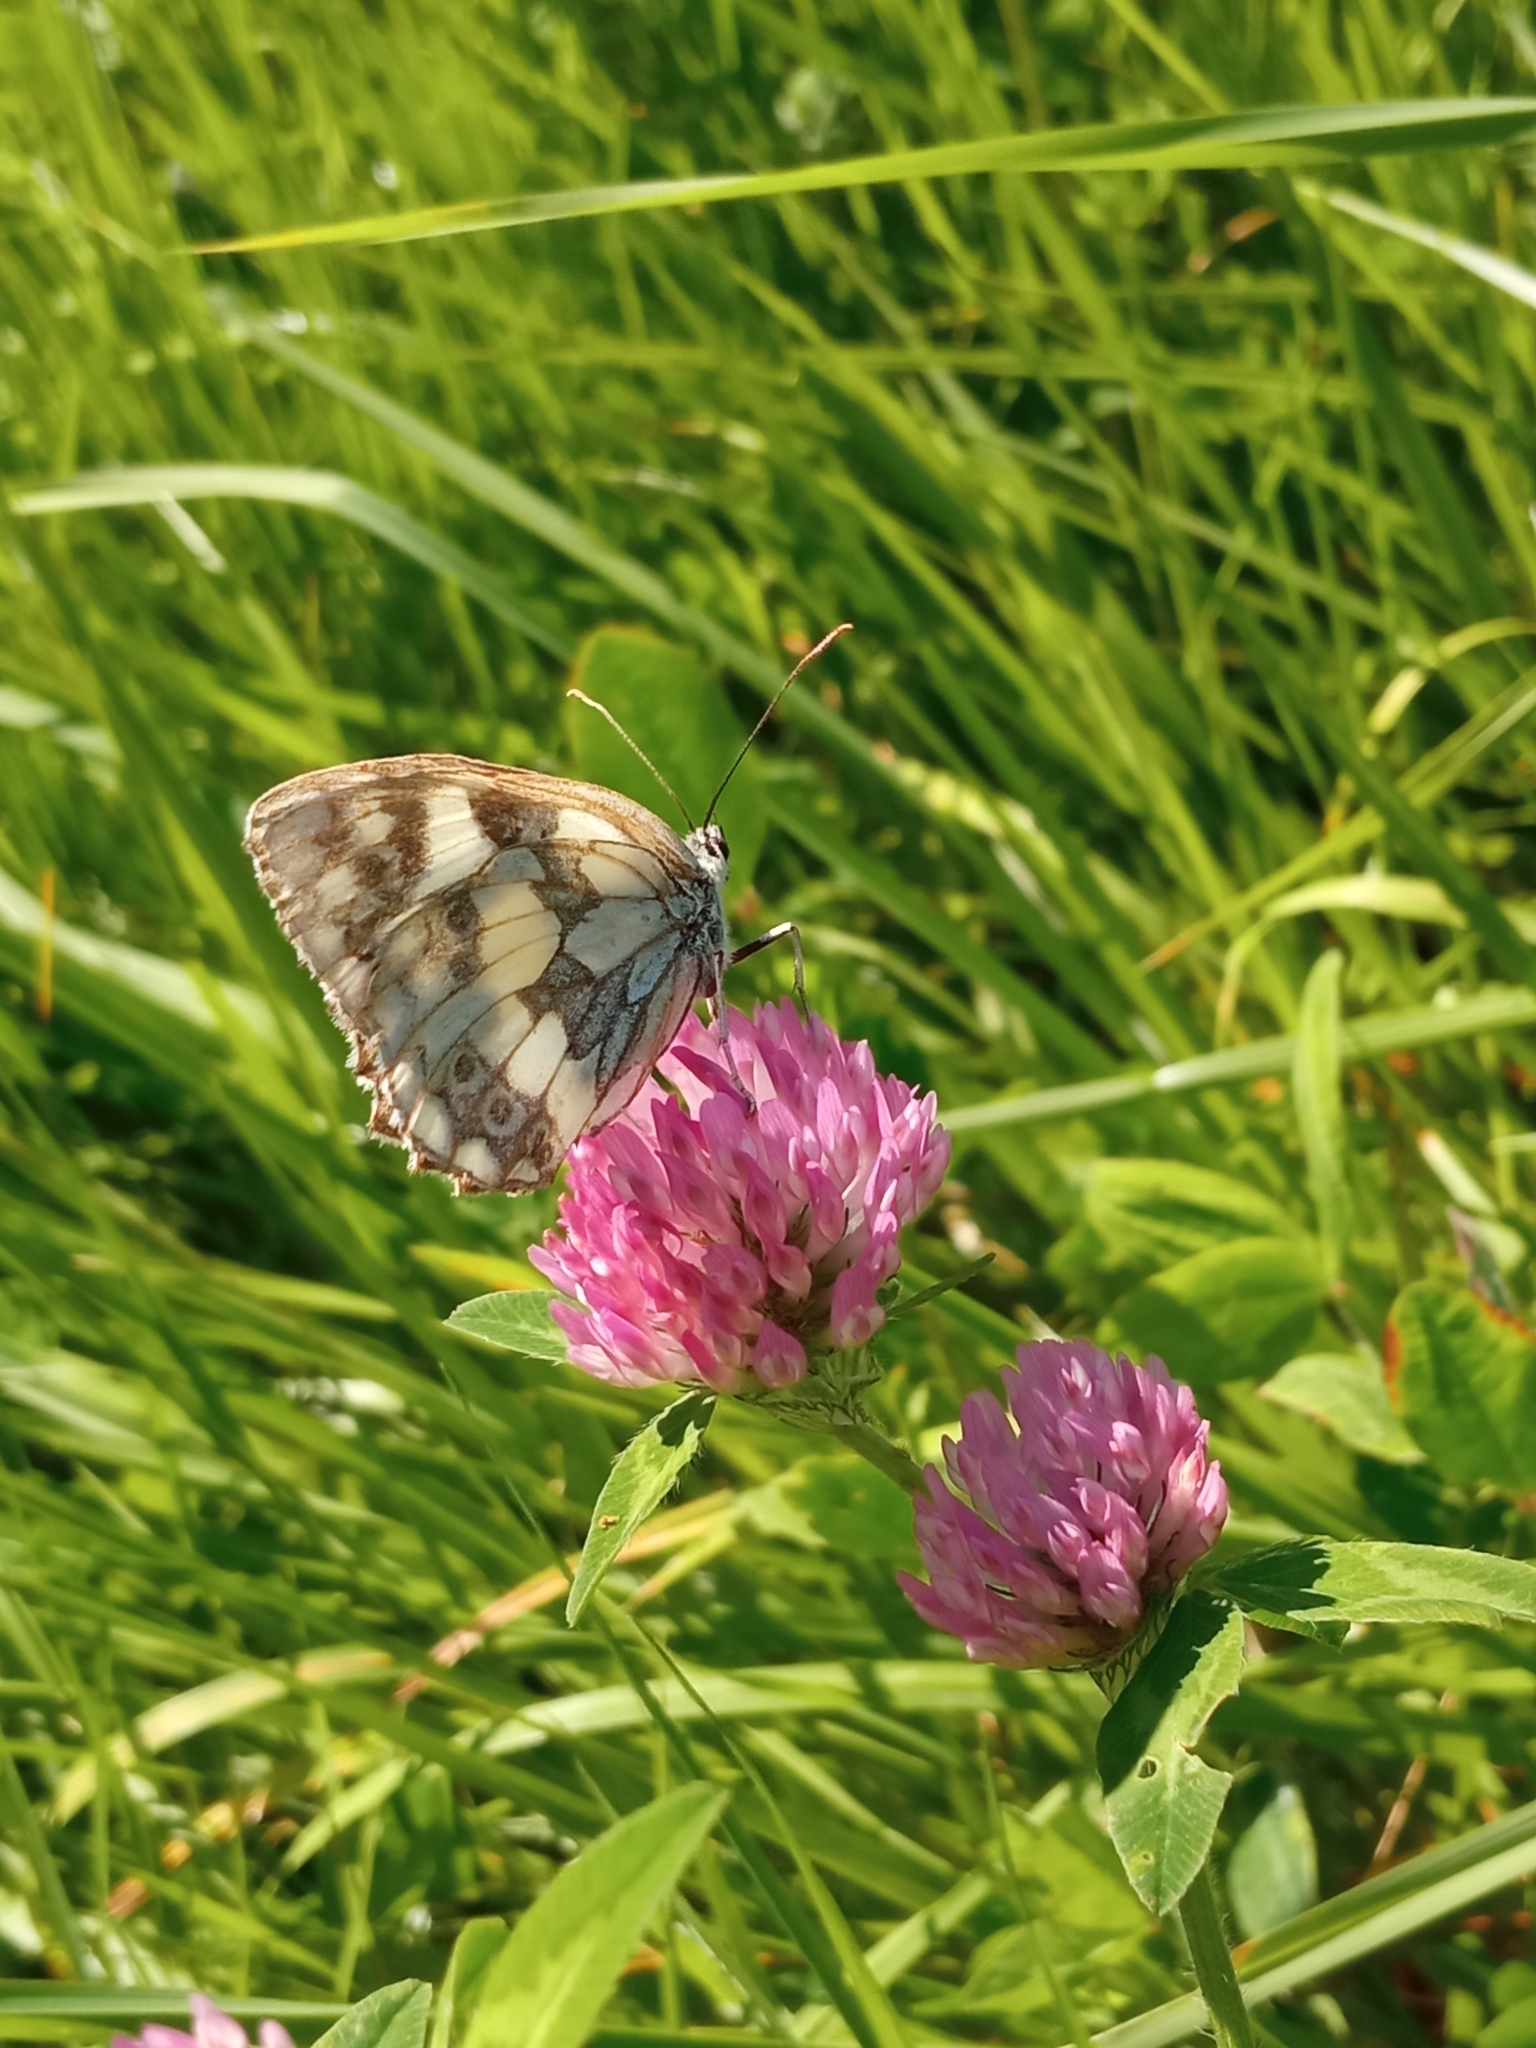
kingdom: Animalia
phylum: Arthropoda
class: Insecta
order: Lepidoptera
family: Nymphalidae
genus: Melanargia
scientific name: Melanargia galathea
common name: Marbled white
